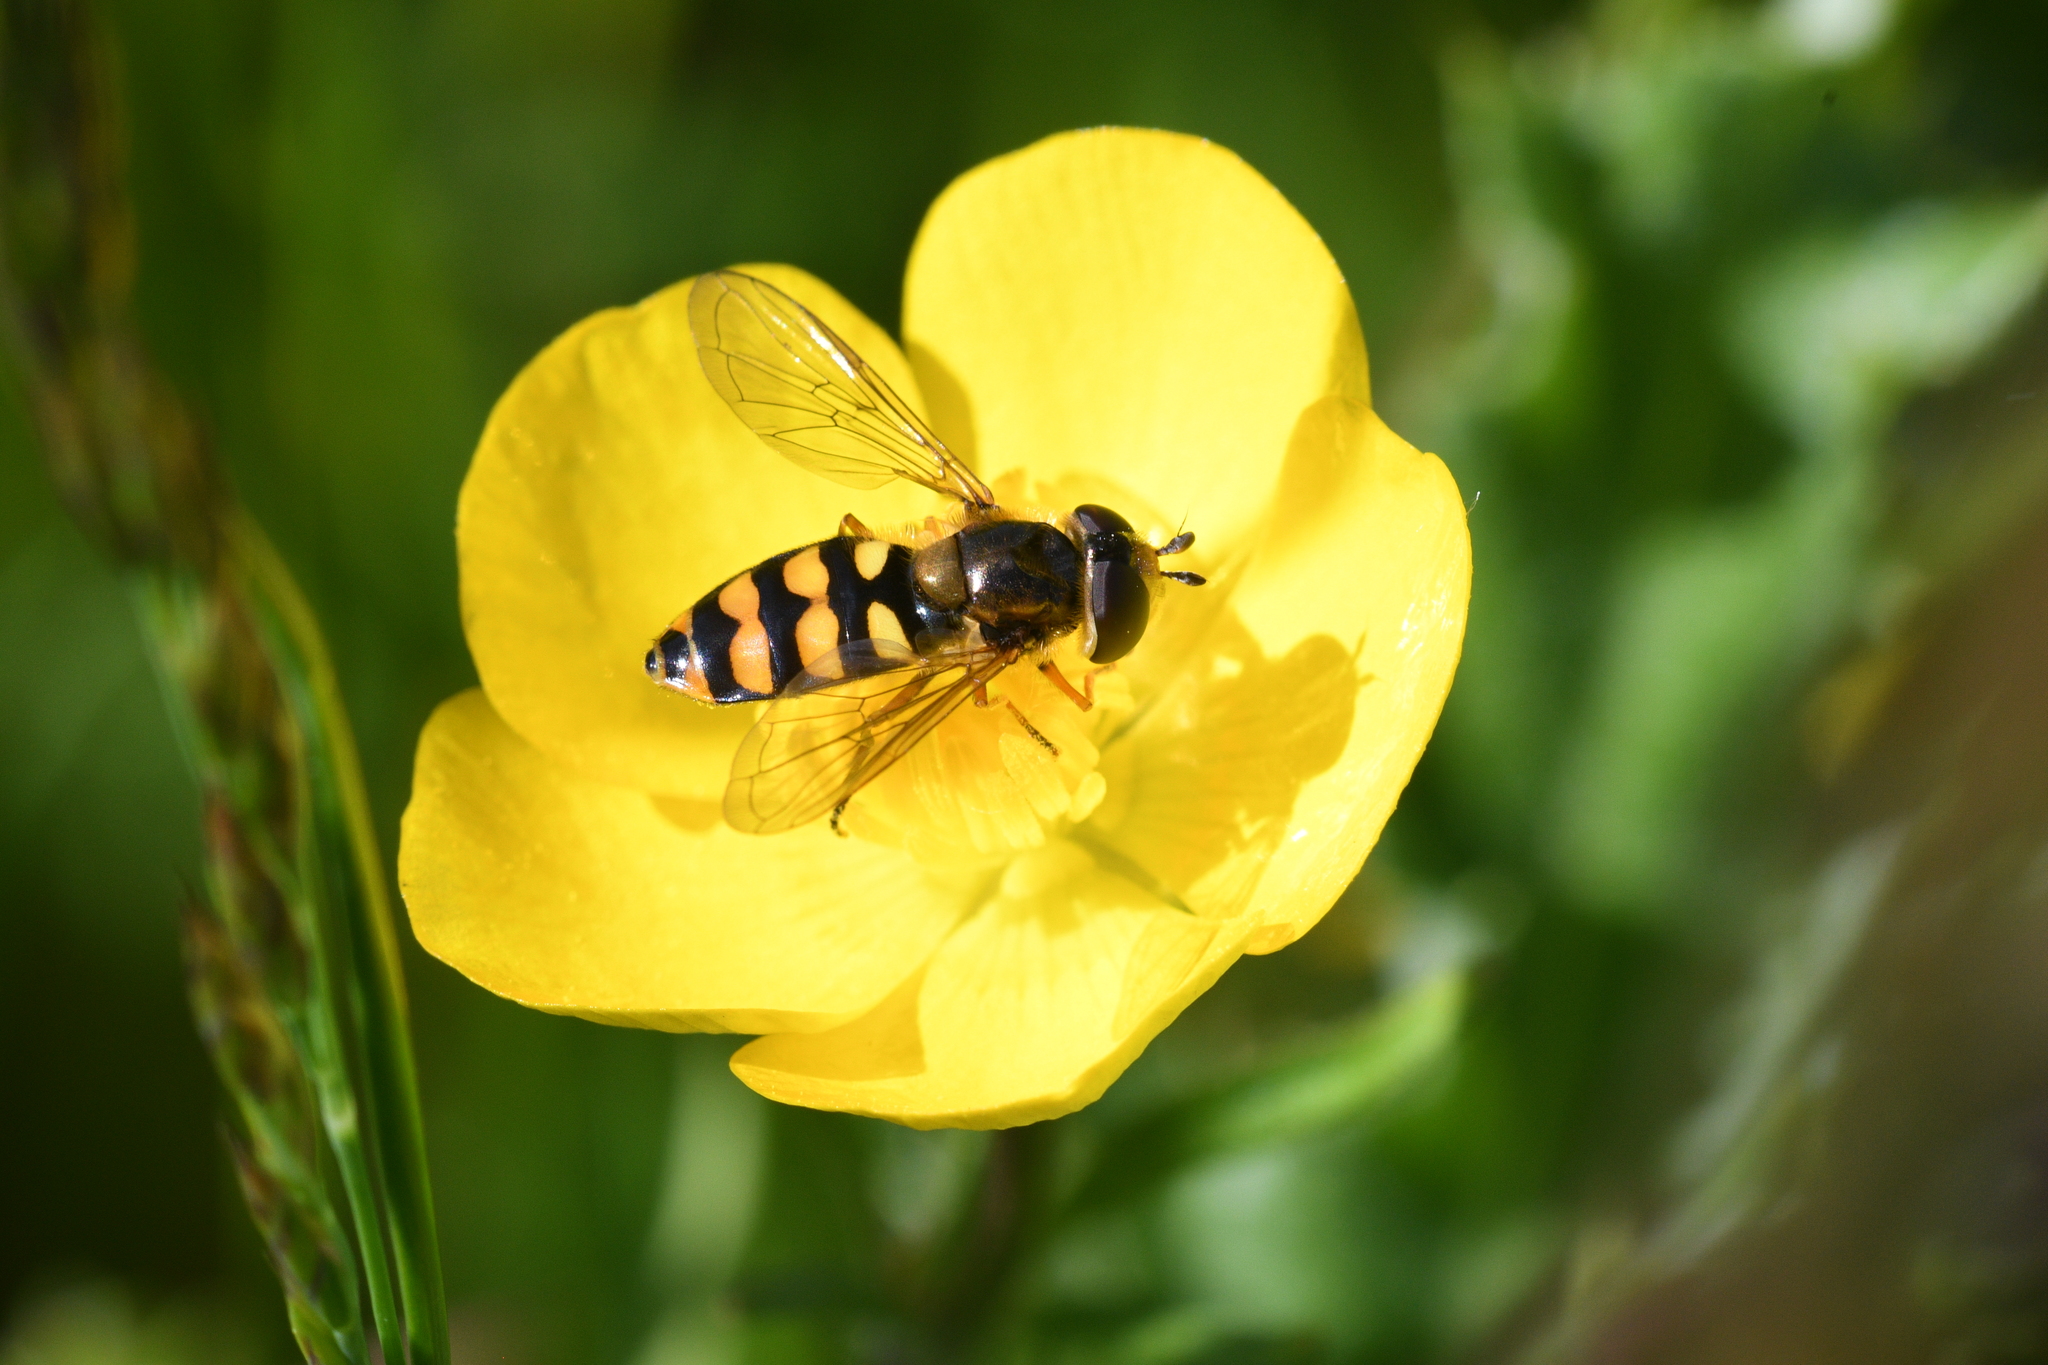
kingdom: Animalia
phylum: Arthropoda
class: Insecta
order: Diptera
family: Syrphidae
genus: Eupeodes
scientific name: Eupeodes latifasciatus
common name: Variable aphideater
